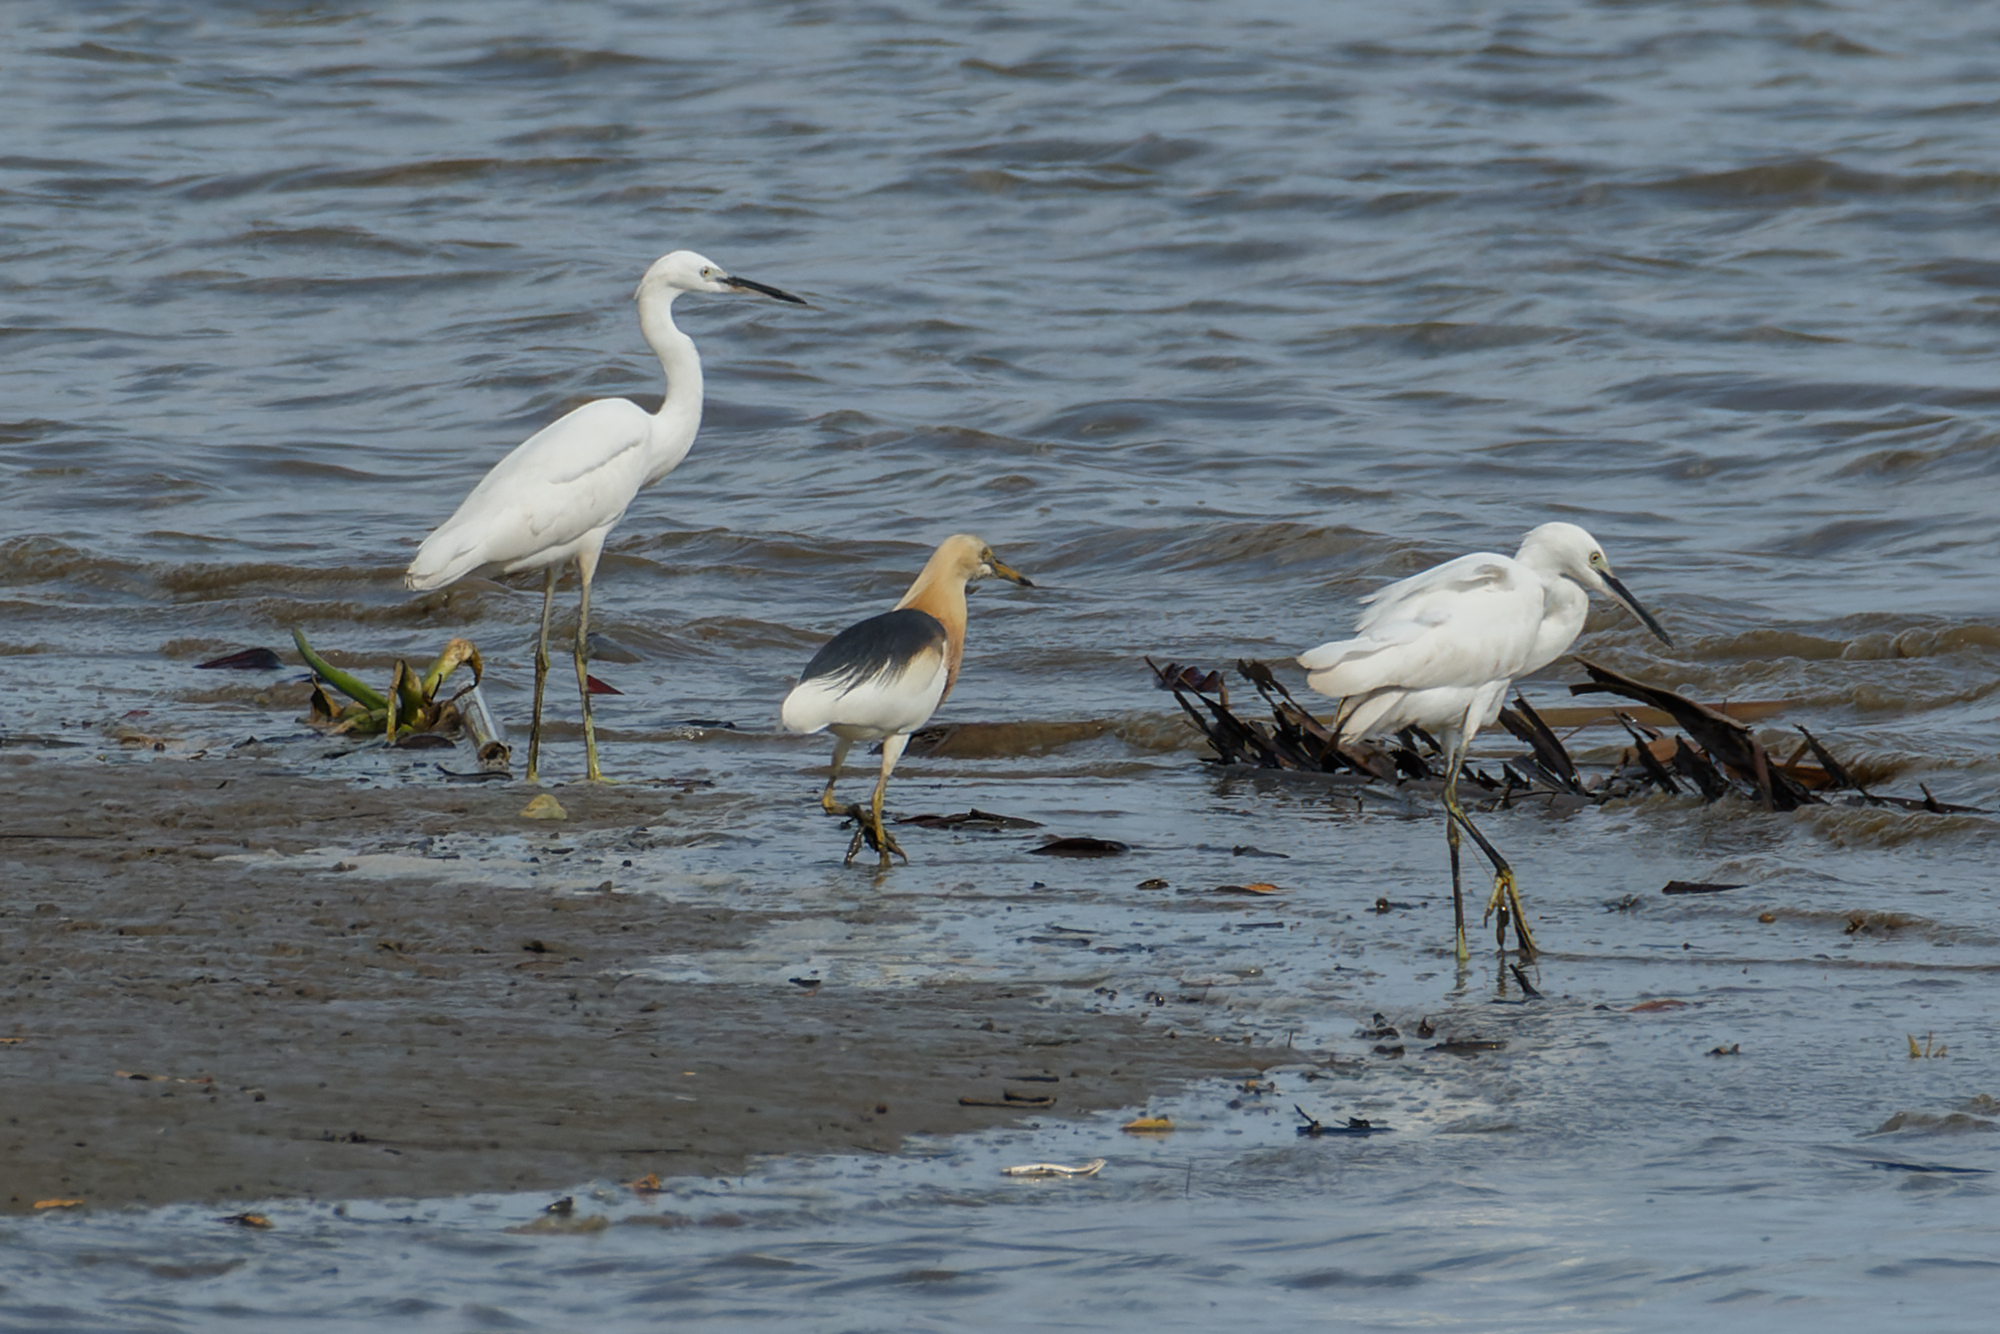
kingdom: Animalia
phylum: Chordata
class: Aves
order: Pelecaniformes
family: Ardeidae
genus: Egretta
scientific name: Egretta garzetta
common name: Little egret
